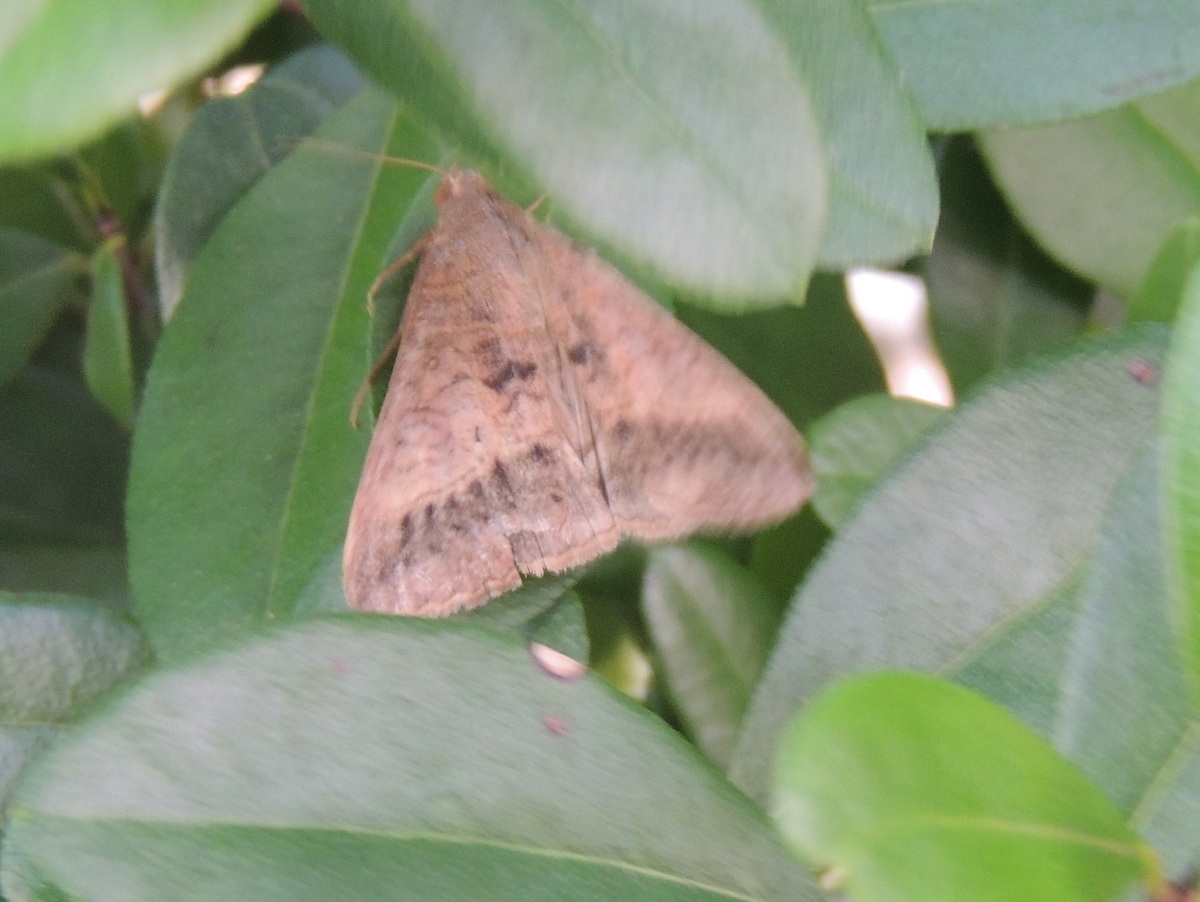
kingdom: Animalia
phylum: Arthropoda
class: Insecta
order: Lepidoptera
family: Erebidae
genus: Mocis
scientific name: Mocis latipes
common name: Striped grass looper
